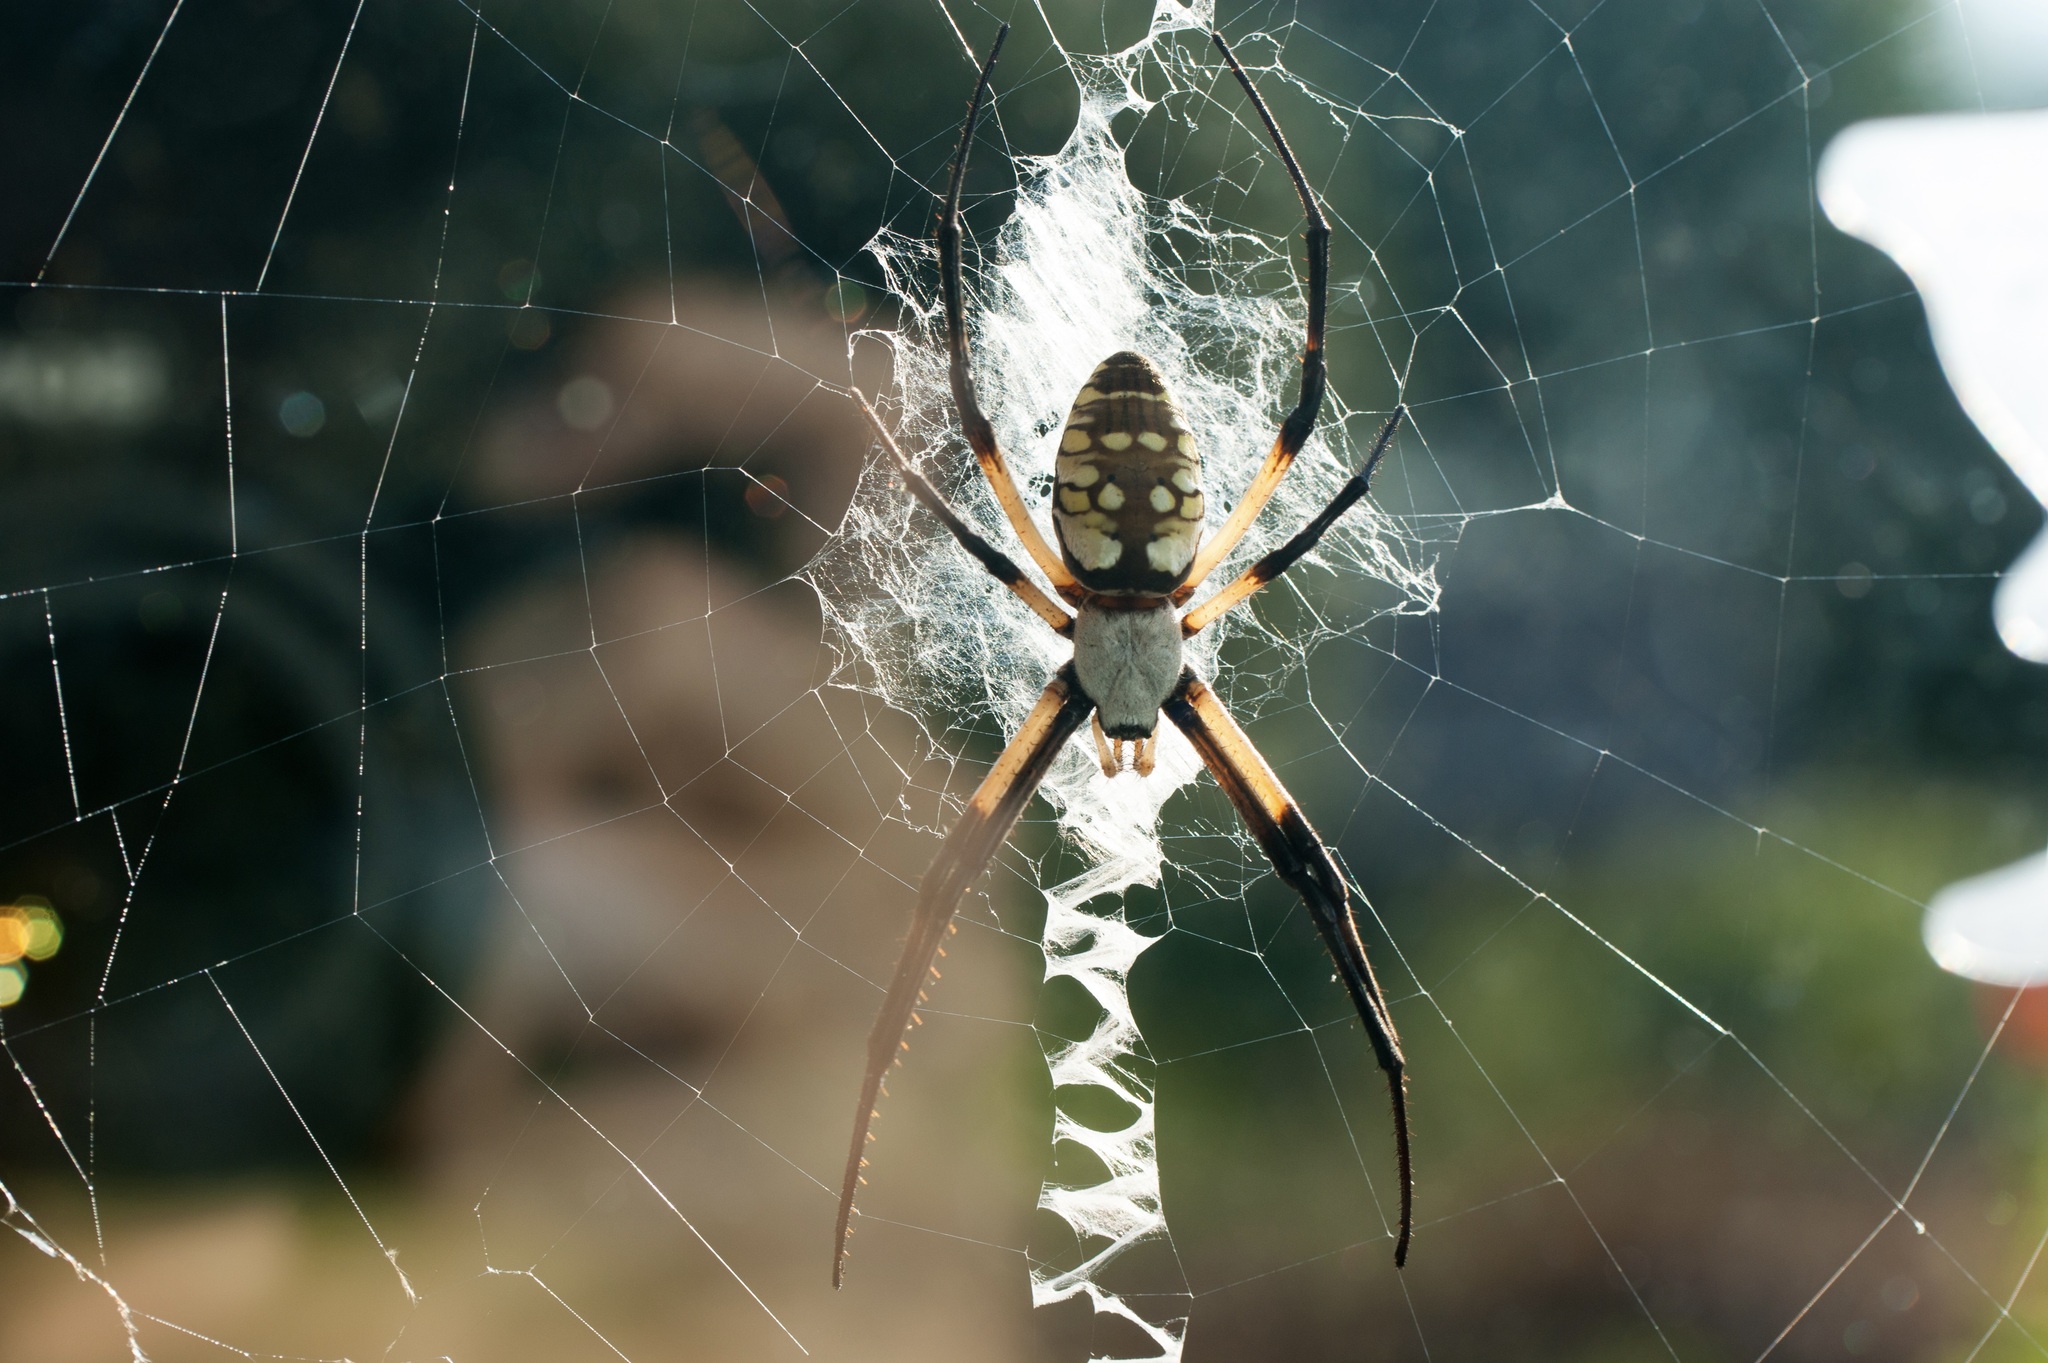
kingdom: Animalia
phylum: Arthropoda
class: Arachnida
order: Araneae
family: Araneidae
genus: Argiope
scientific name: Argiope aurantia
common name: Orb weavers
